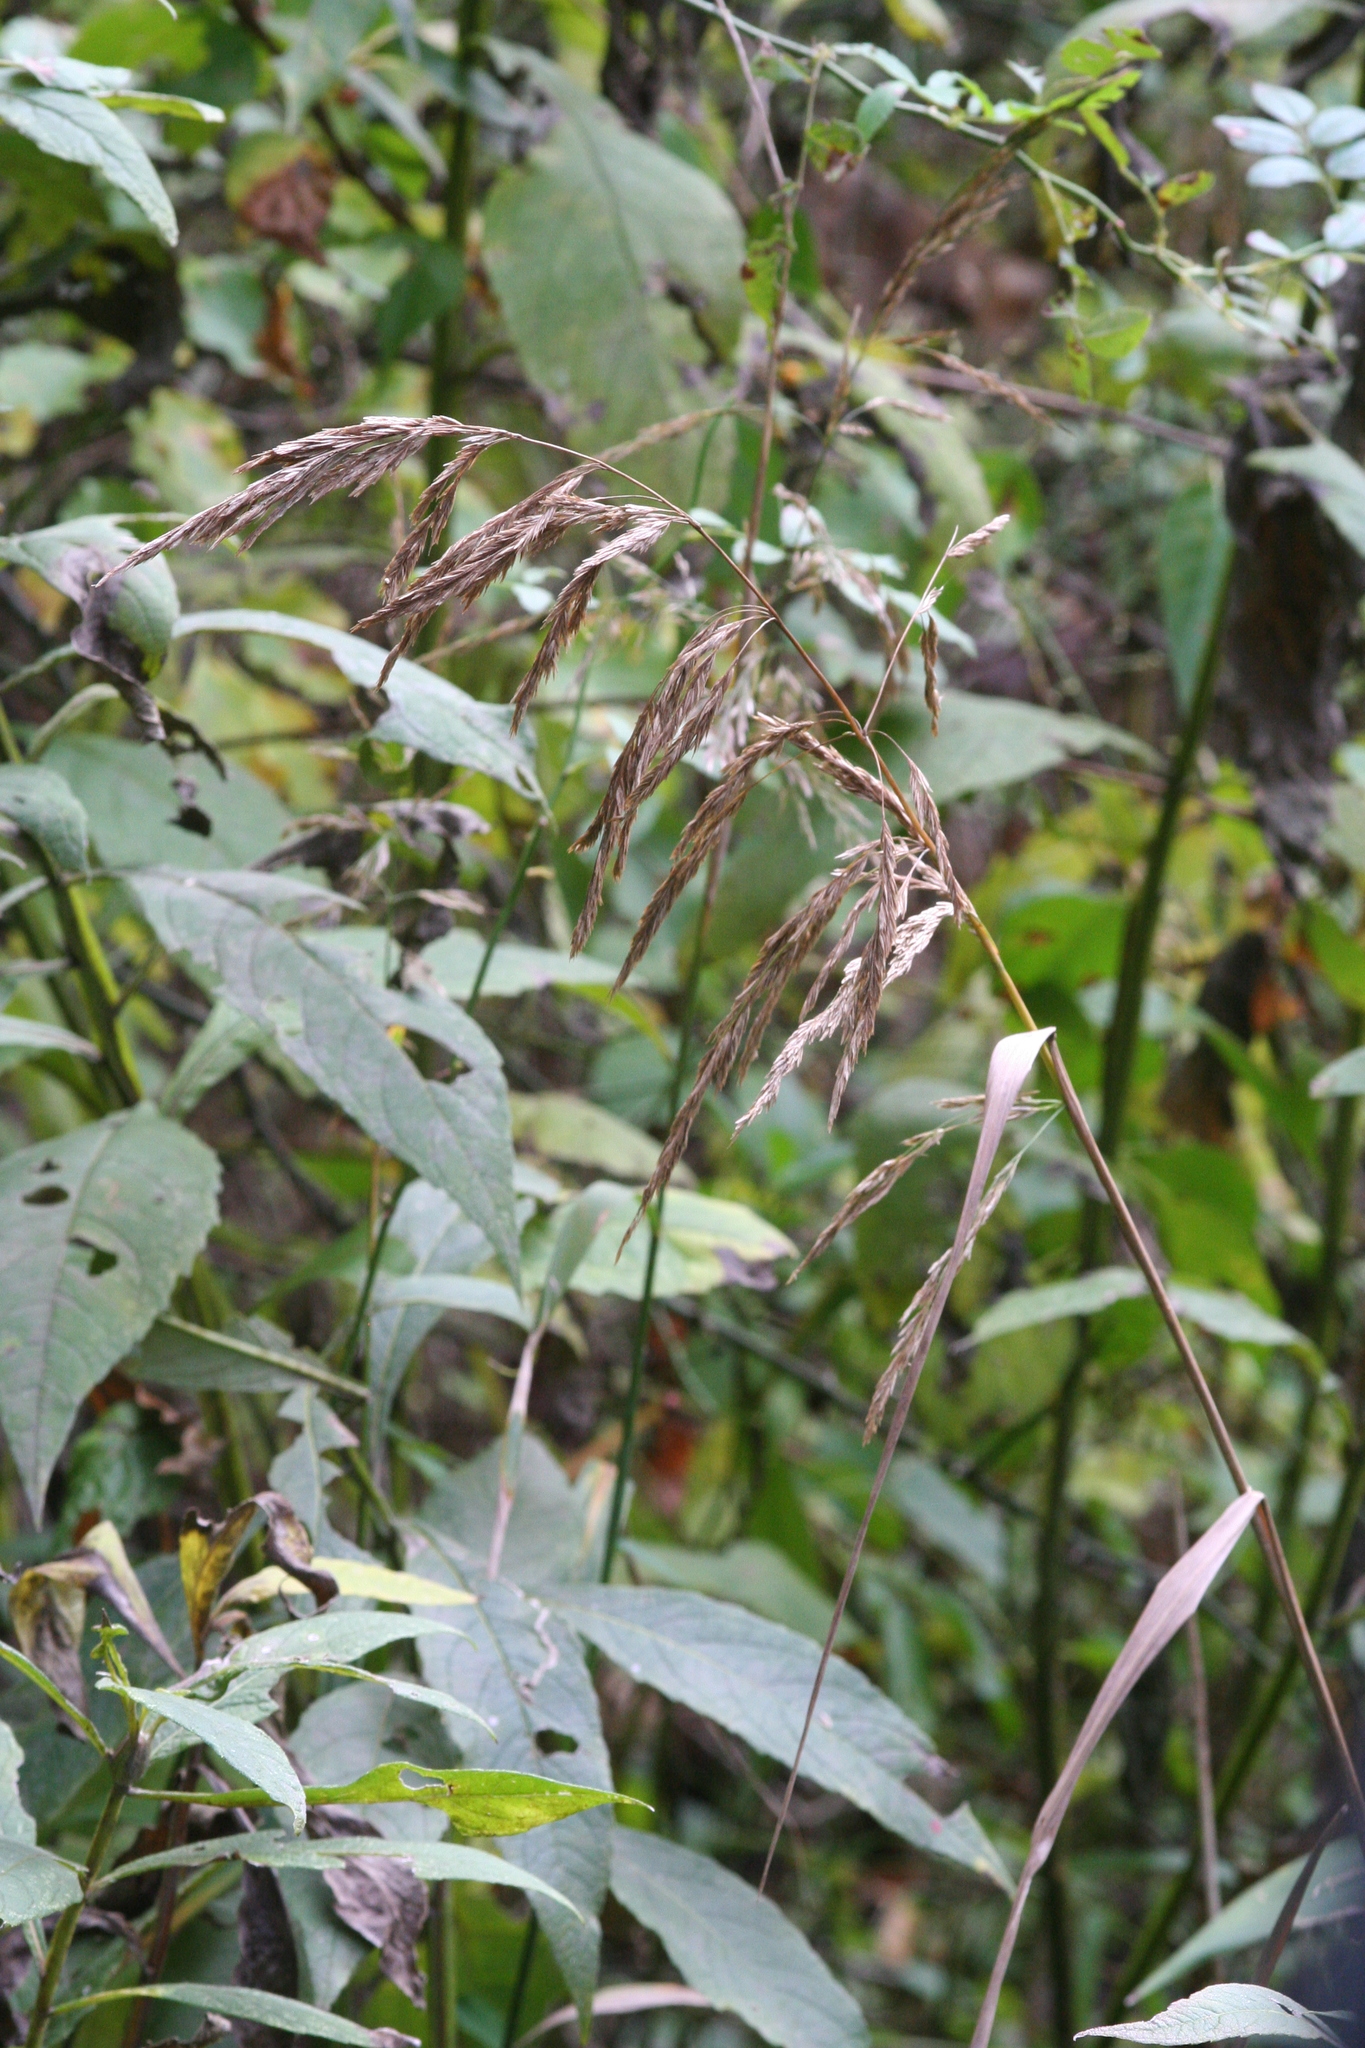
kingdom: Plantae
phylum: Tracheophyta
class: Liliopsida
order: Poales
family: Poaceae
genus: Cinna
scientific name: Cinna arundinacea
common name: Stout woodreed
